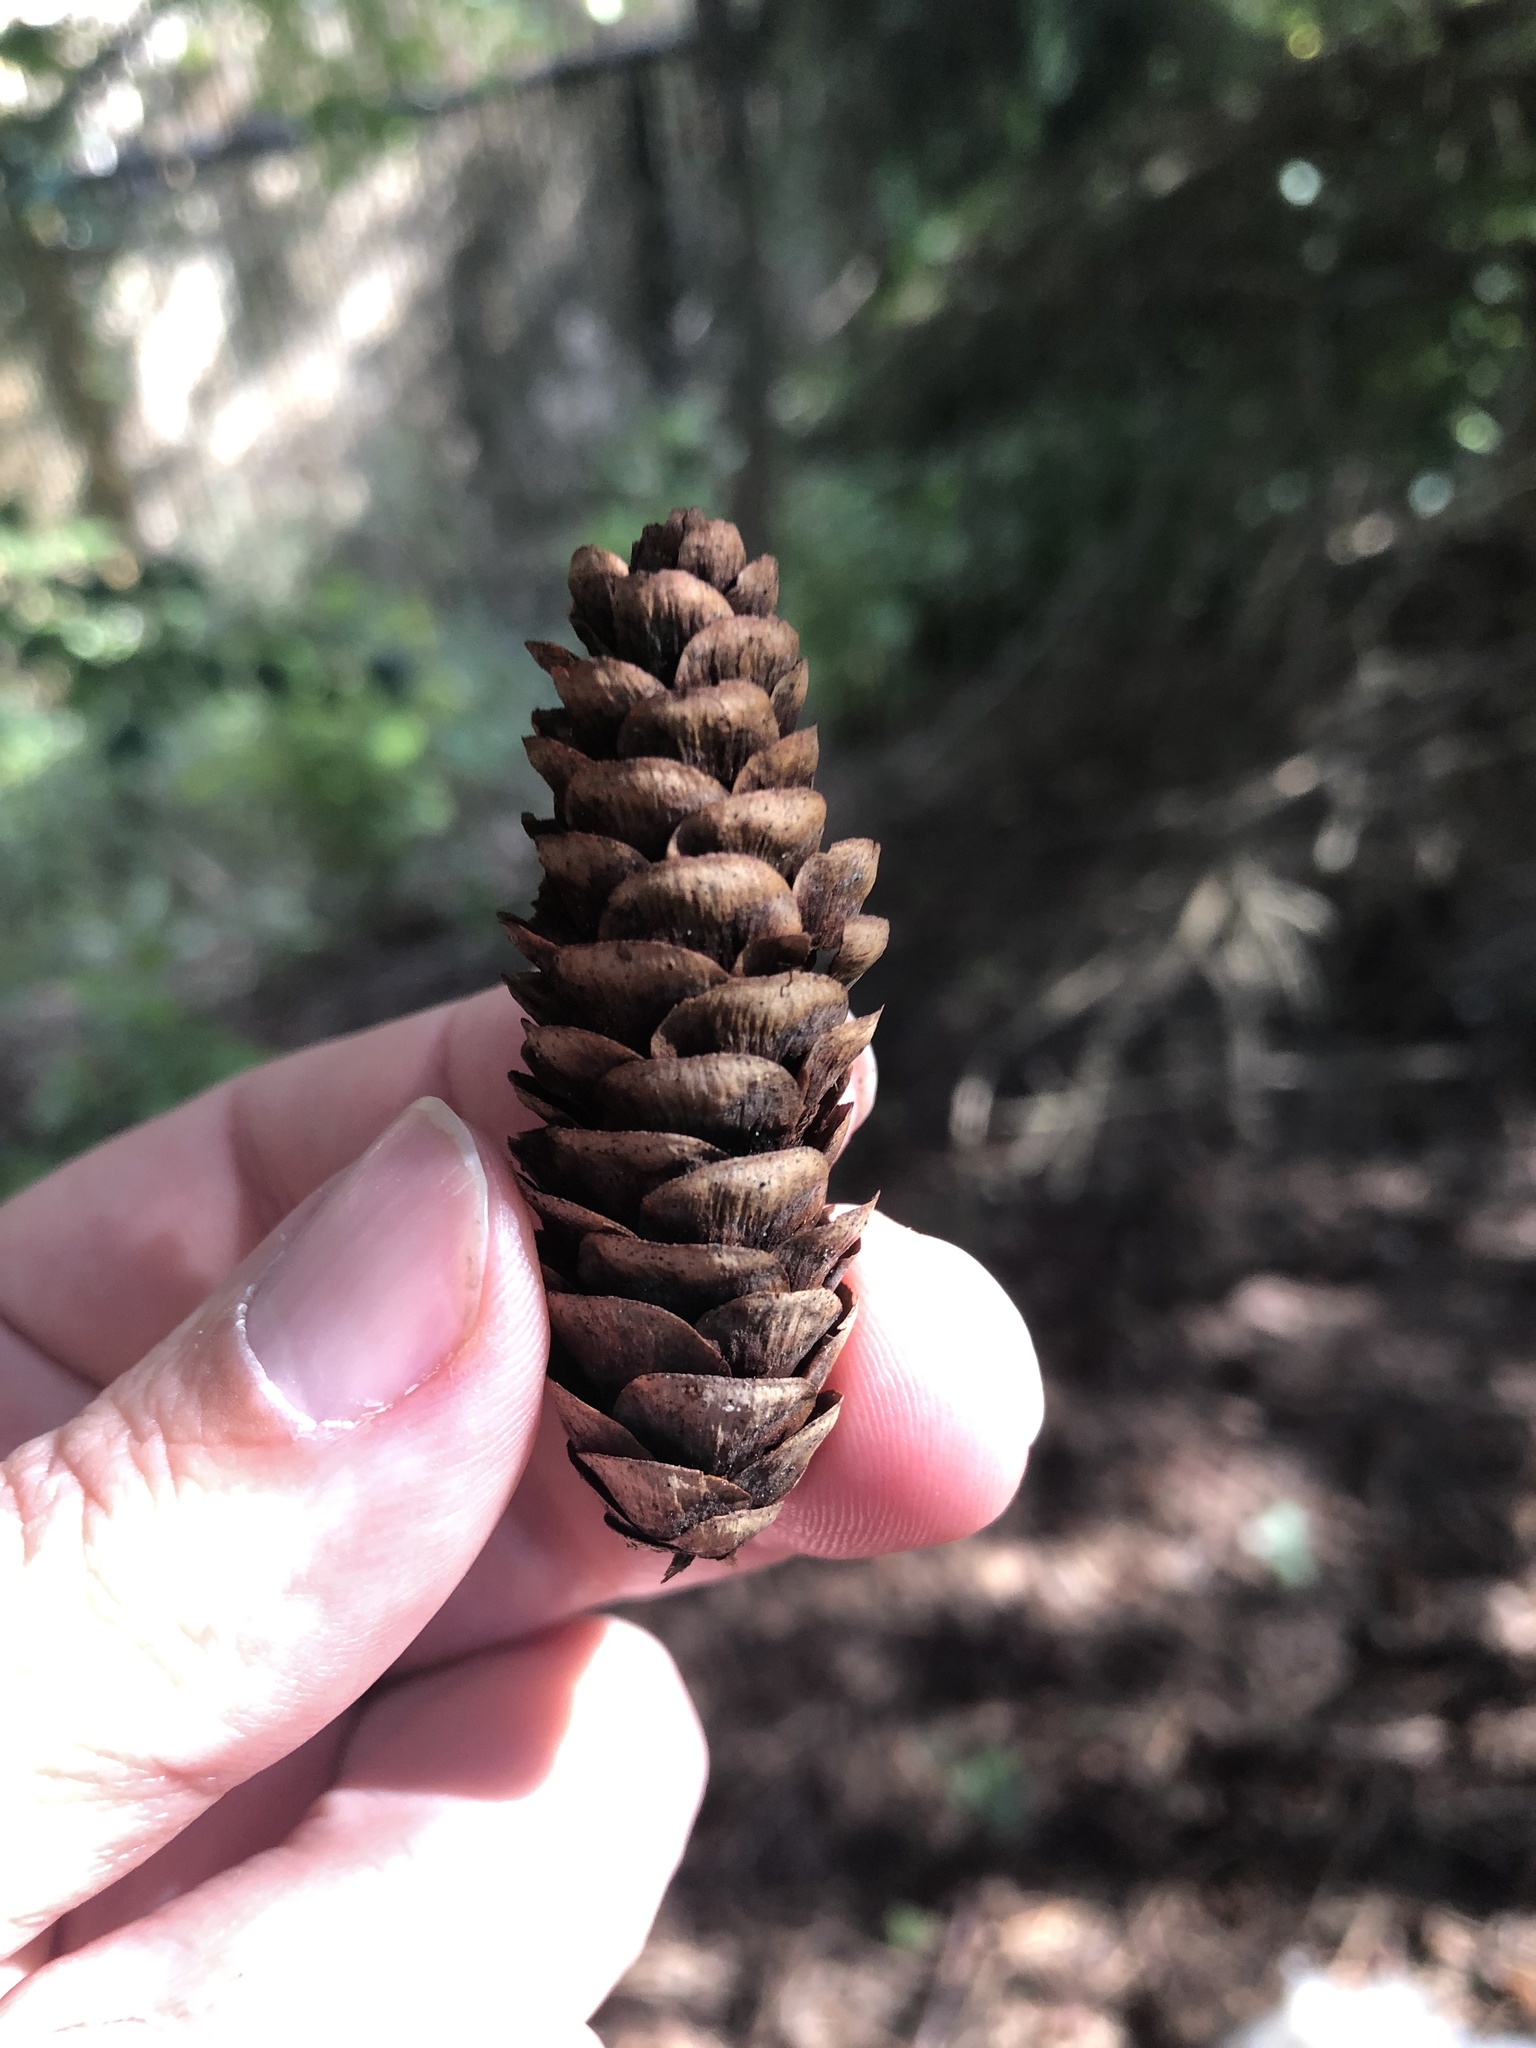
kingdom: Plantae
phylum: Tracheophyta
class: Pinopsida
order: Pinales
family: Pinaceae
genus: Picea
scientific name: Picea glauca
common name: White spruce
